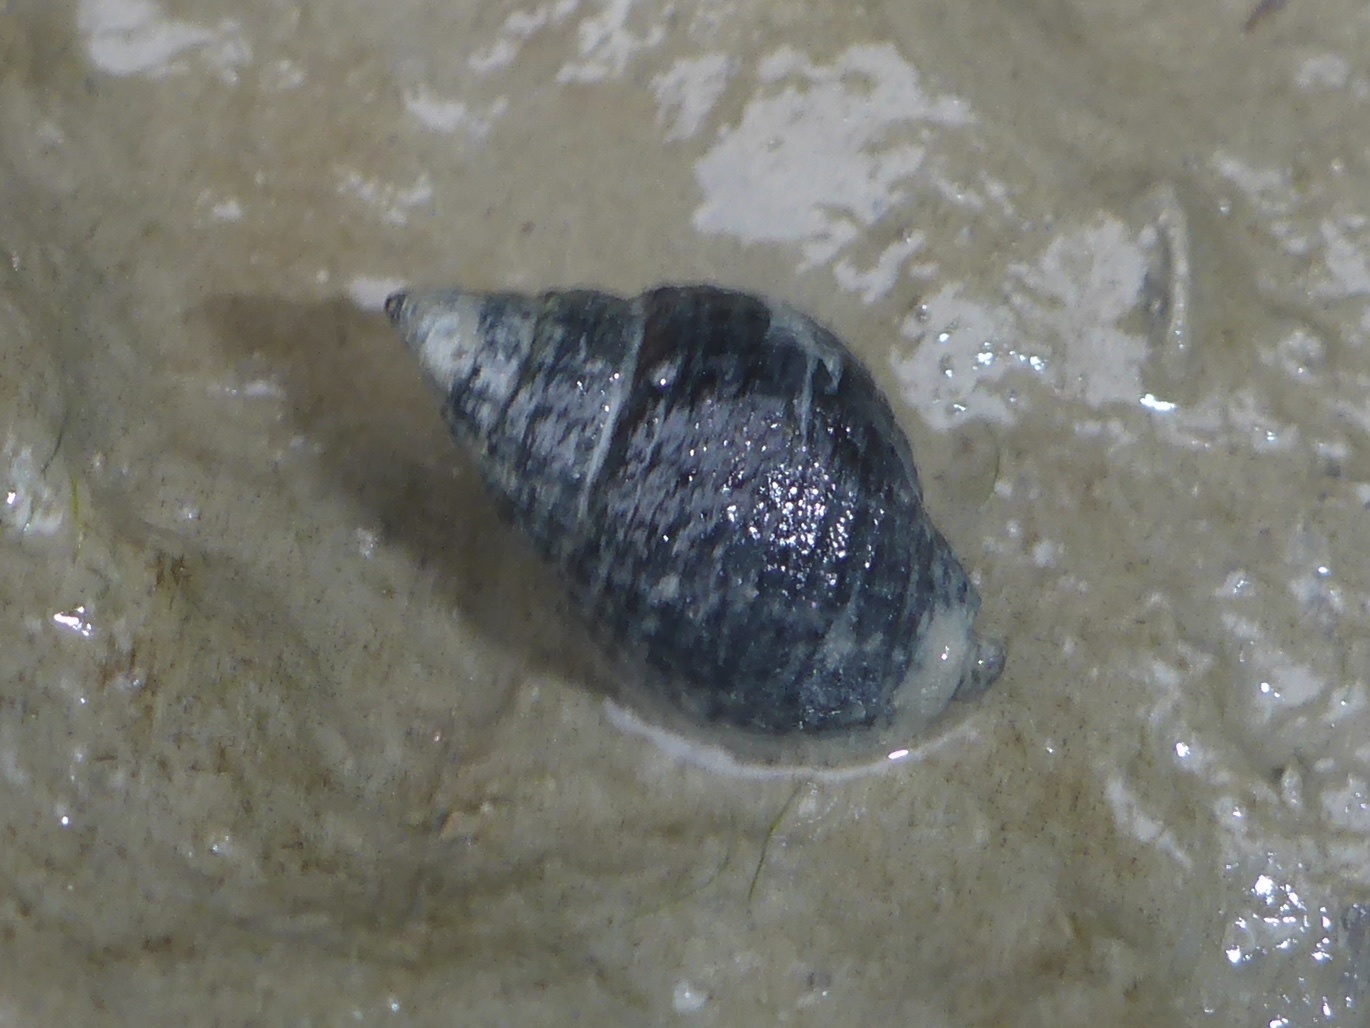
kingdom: Animalia
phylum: Mollusca
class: Gastropoda
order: Neogastropoda
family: Nassariidae
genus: Ilyanassa
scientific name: Ilyanassa obsoleta
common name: Eastern mudsnail
